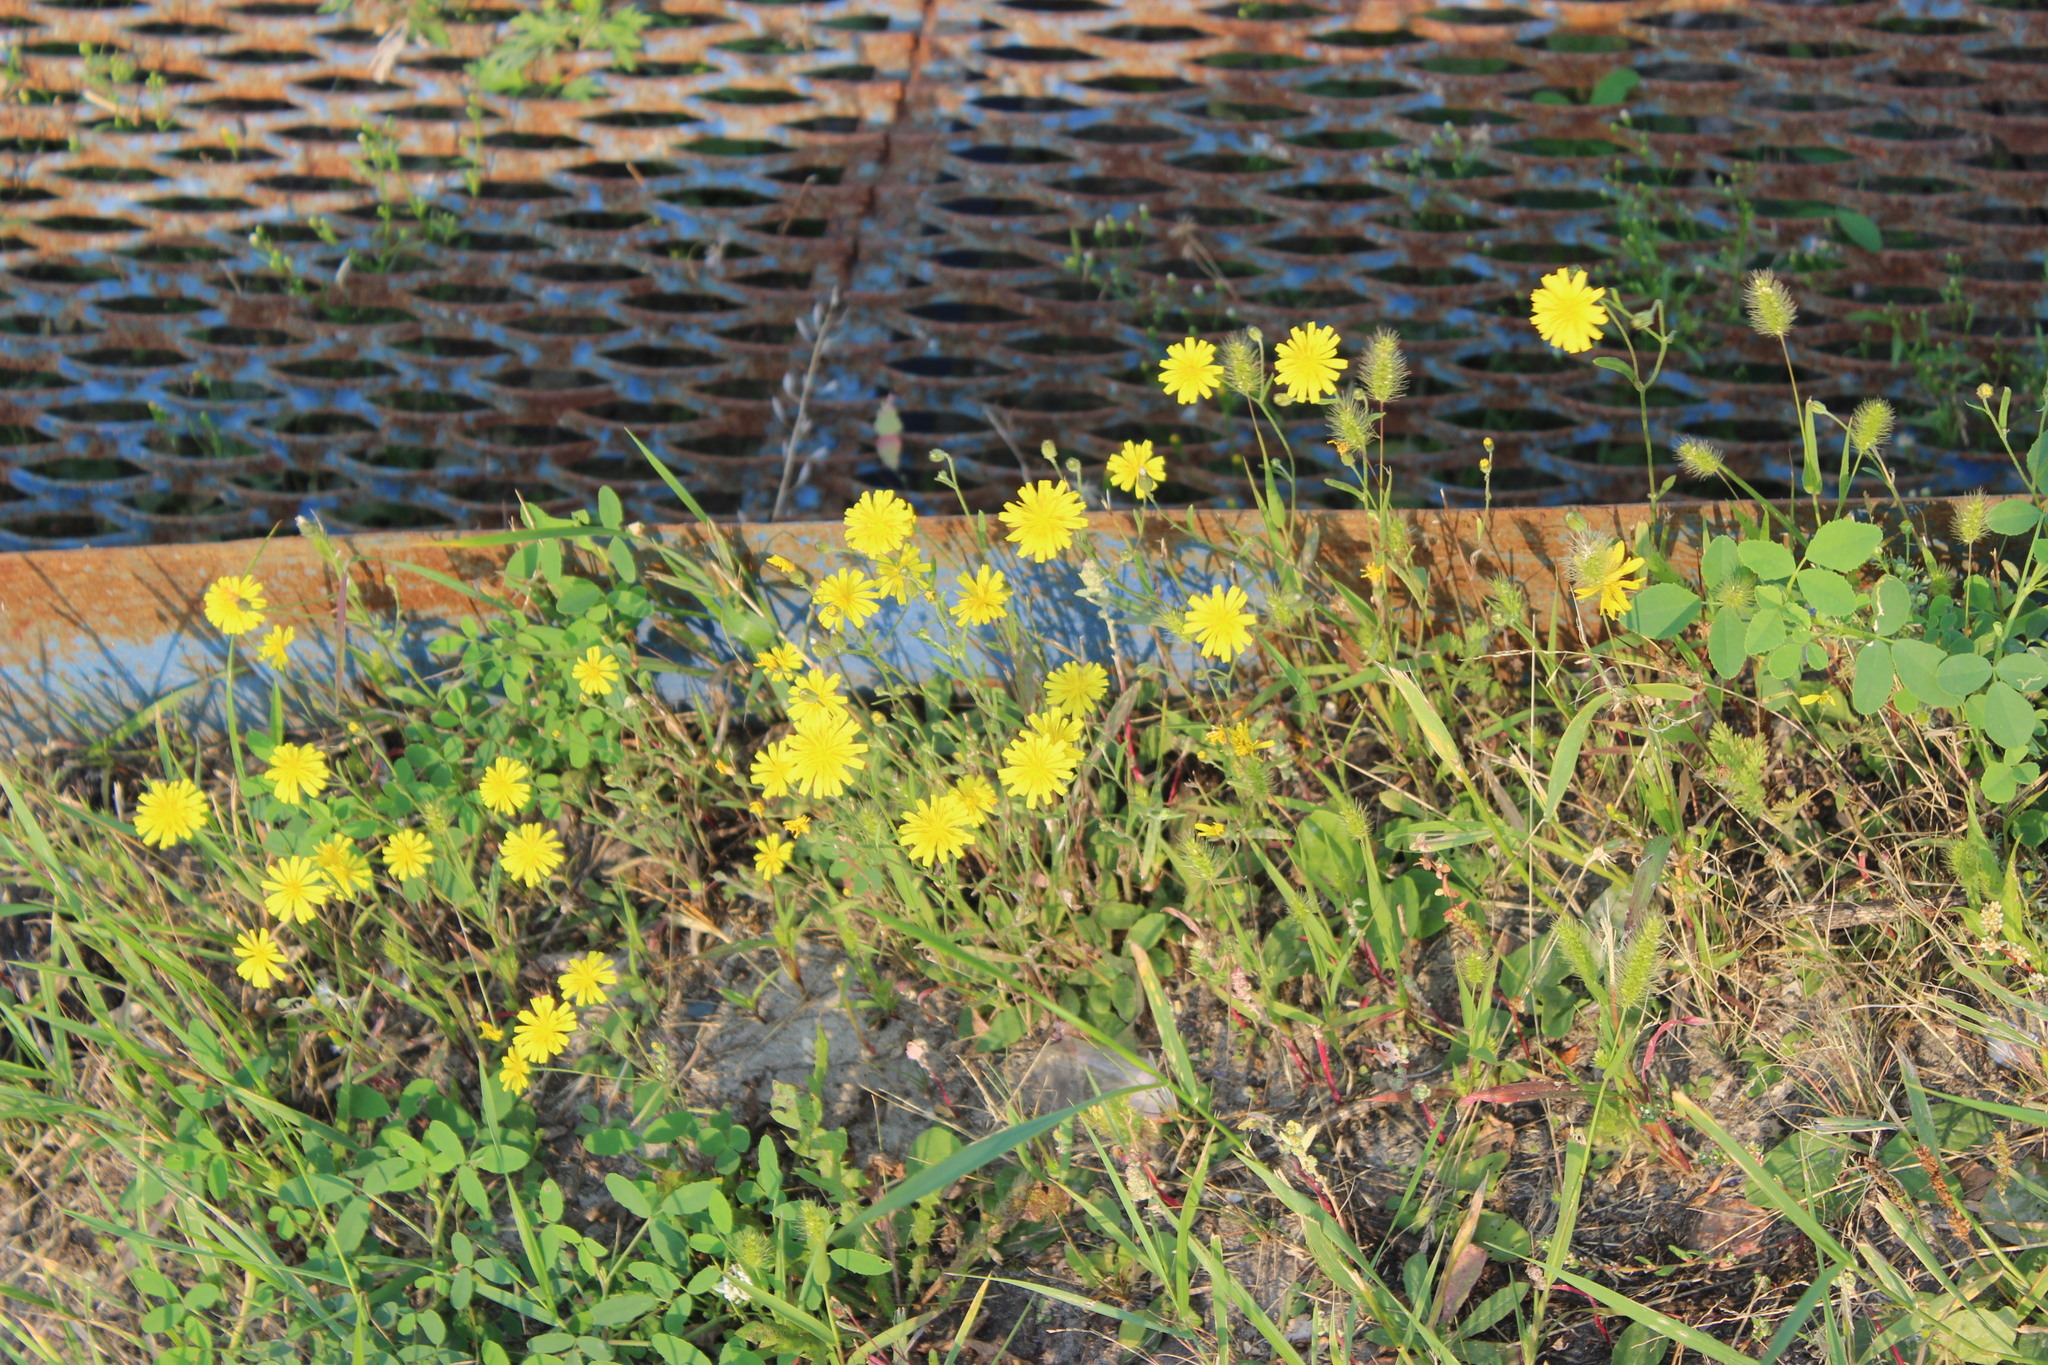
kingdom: Plantae
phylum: Tracheophyta
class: Magnoliopsida
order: Asterales
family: Asteraceae
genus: Crepis
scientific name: Crepis tectorum
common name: Narrow-leaved hawk's-beard
